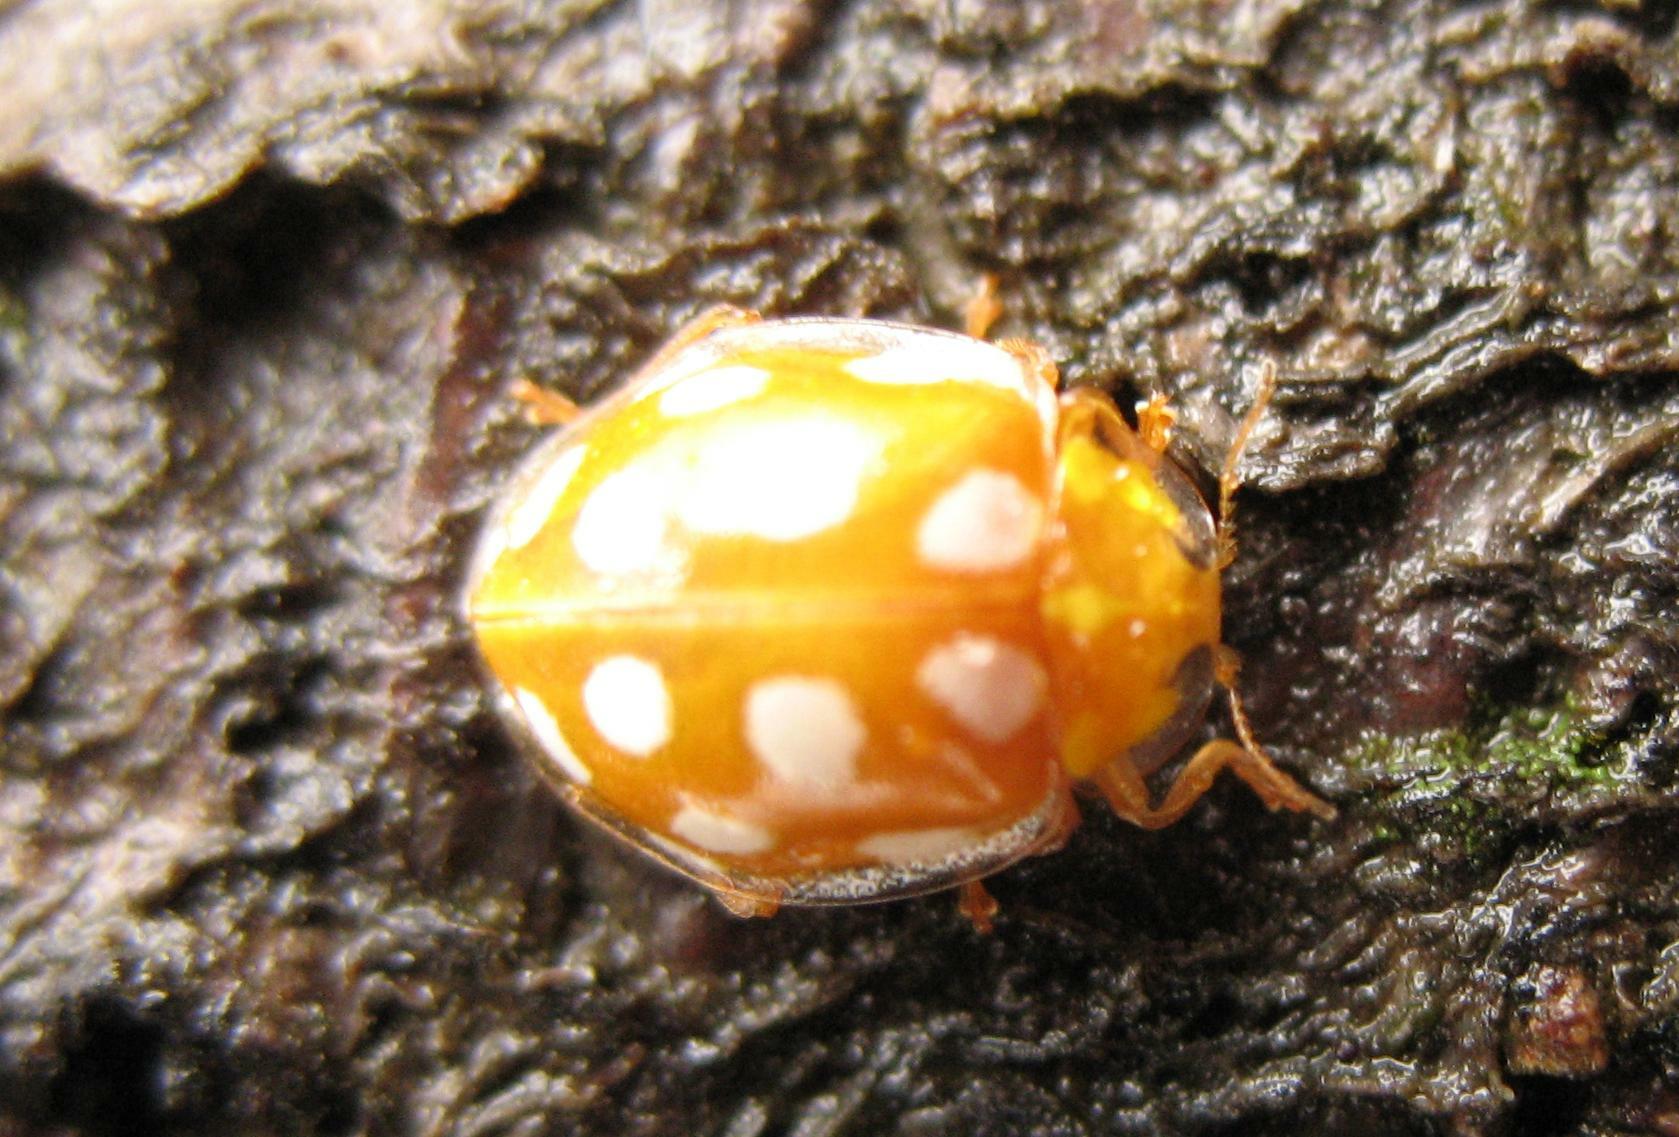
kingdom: Animalia
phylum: Arthropoda
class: Insecta
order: Coleoptera
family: Coccinellidae
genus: Halyzia
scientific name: Halyzia sedecimguttata
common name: Orange ladybird
